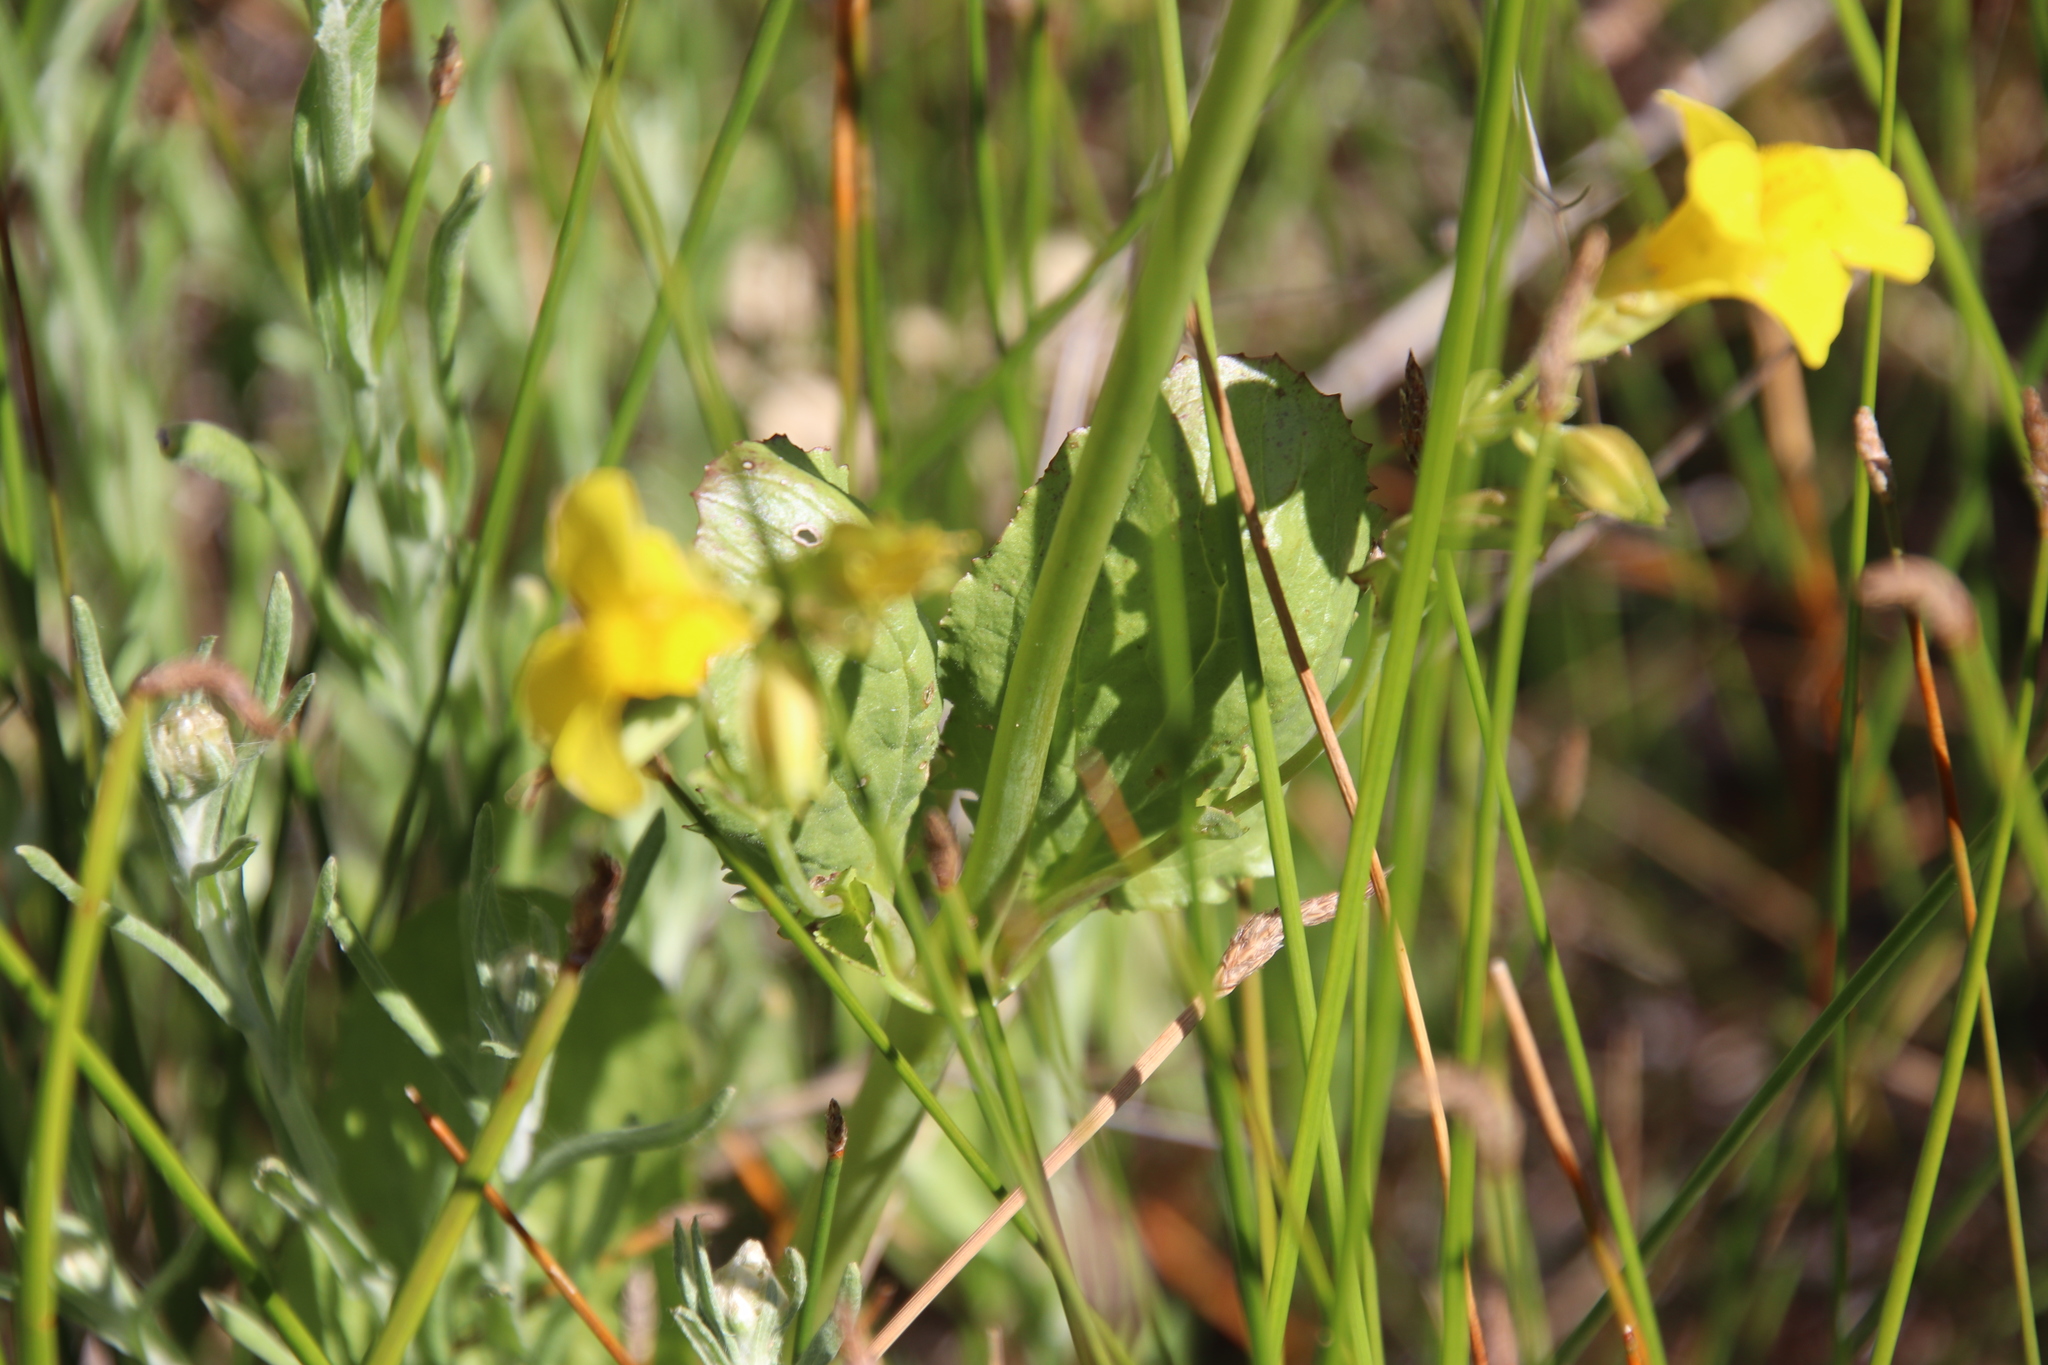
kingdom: Plantae
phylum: Tracheophyta
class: Magnoliopsida
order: Lamiales
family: Phrymaceae
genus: Erythranthe
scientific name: Erythranthe guttata
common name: Monkeyflower
